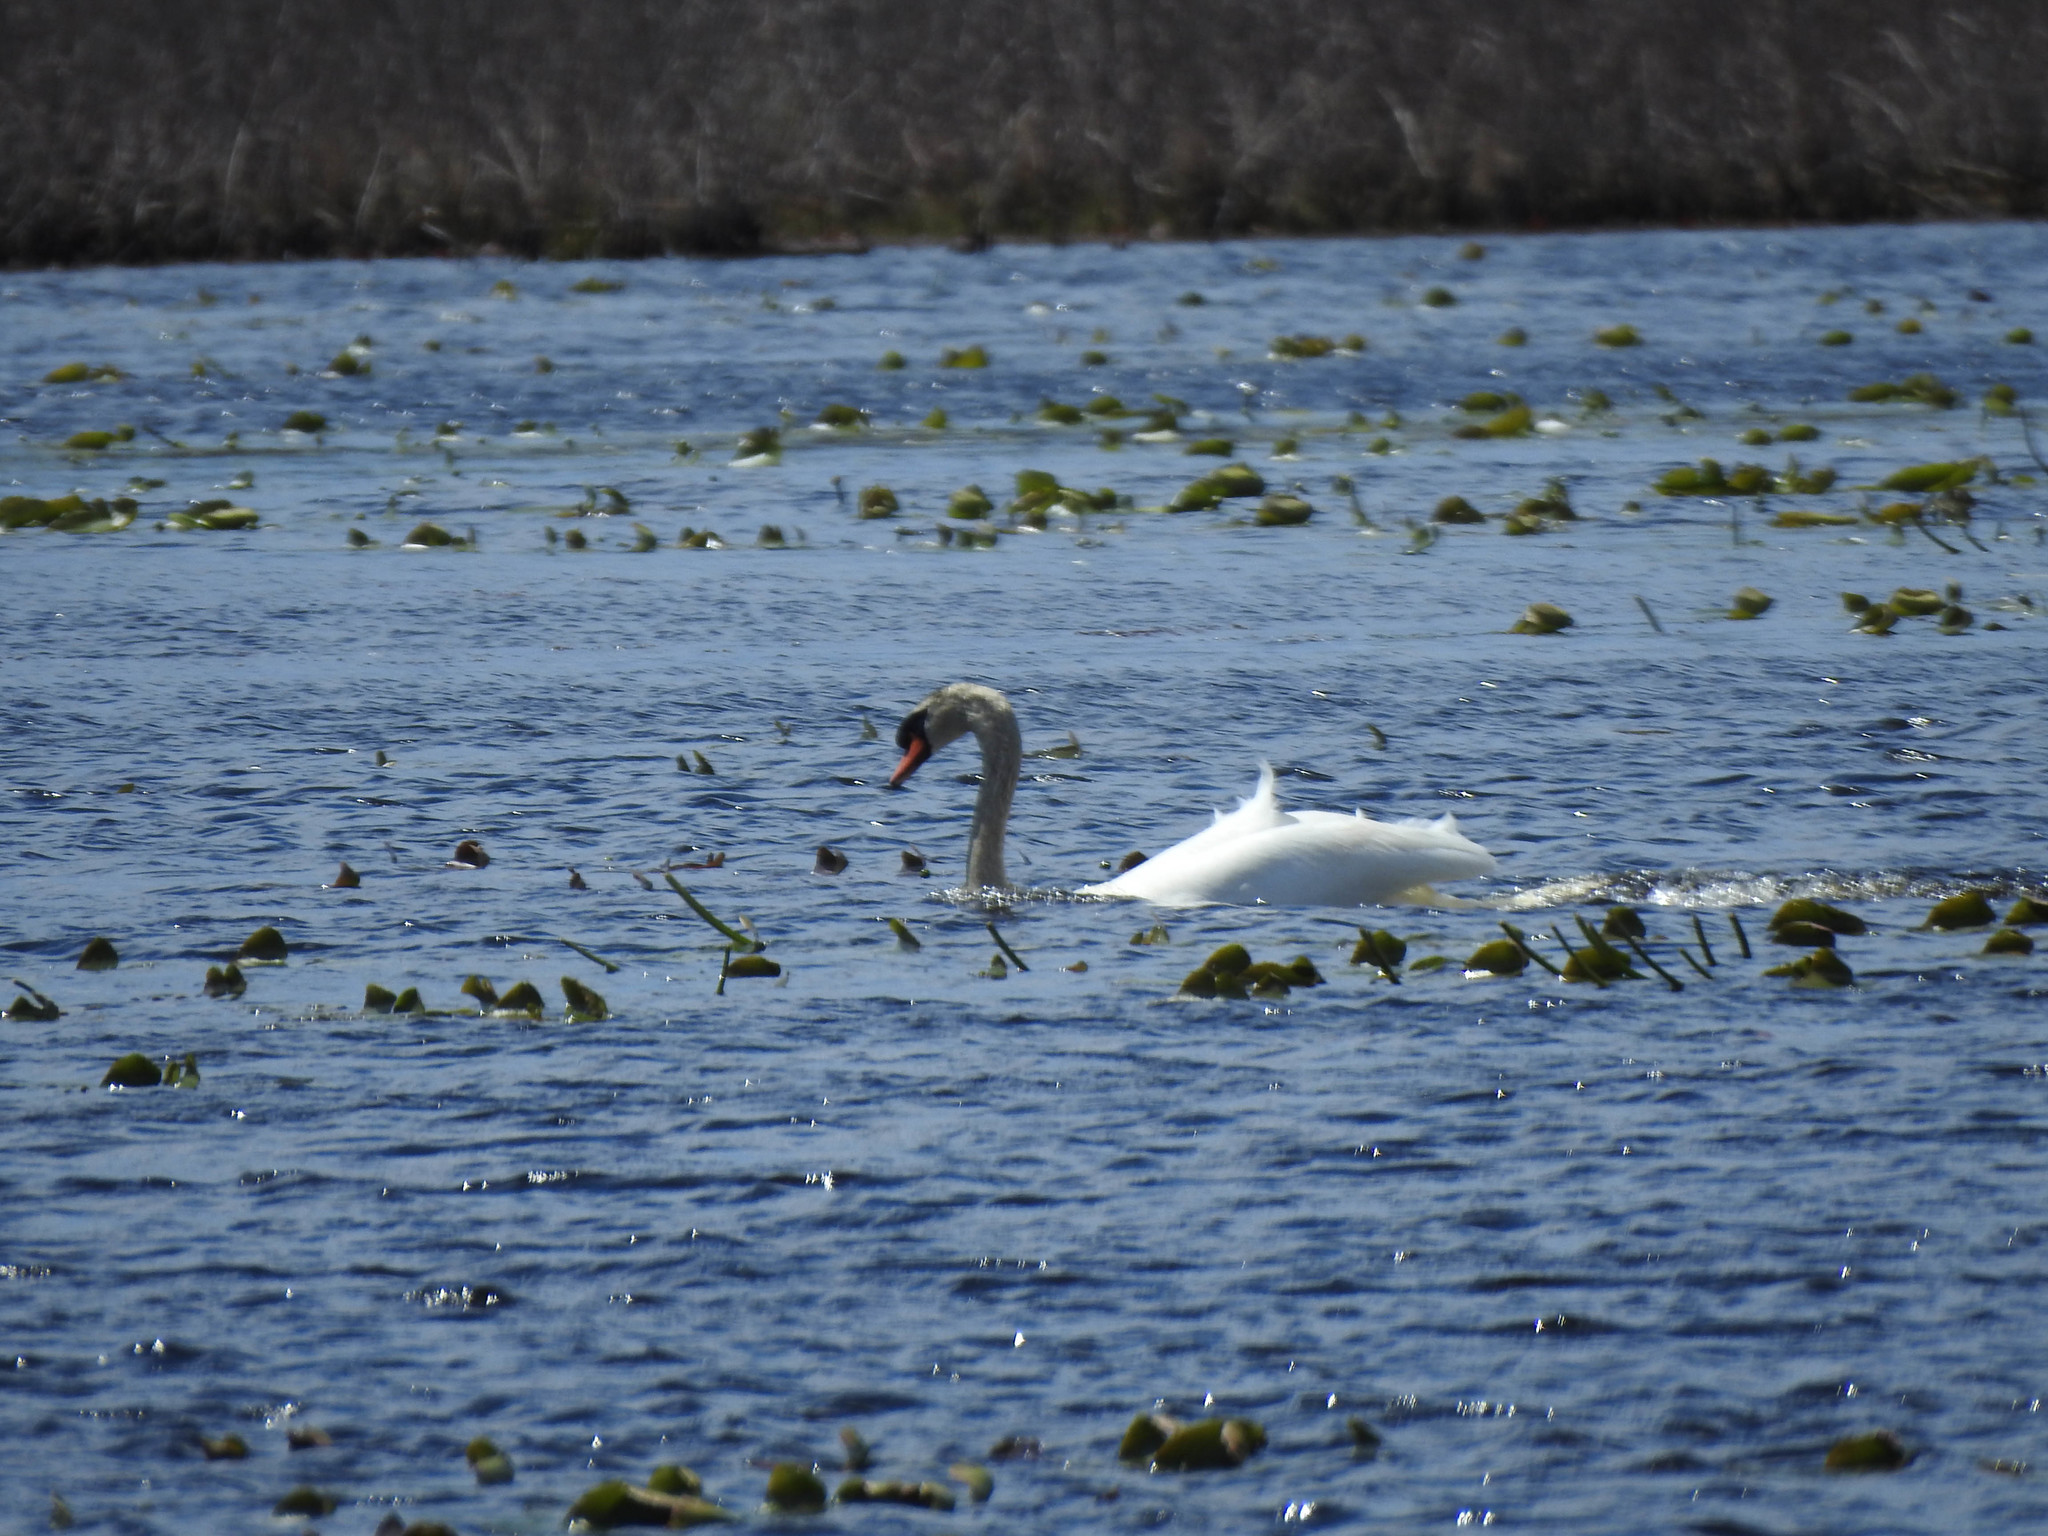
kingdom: Animalia
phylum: Chordata
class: Aves
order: Anseriformes
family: Anatidae
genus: Cygnus
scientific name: Cygnus olor
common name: Mute swan
